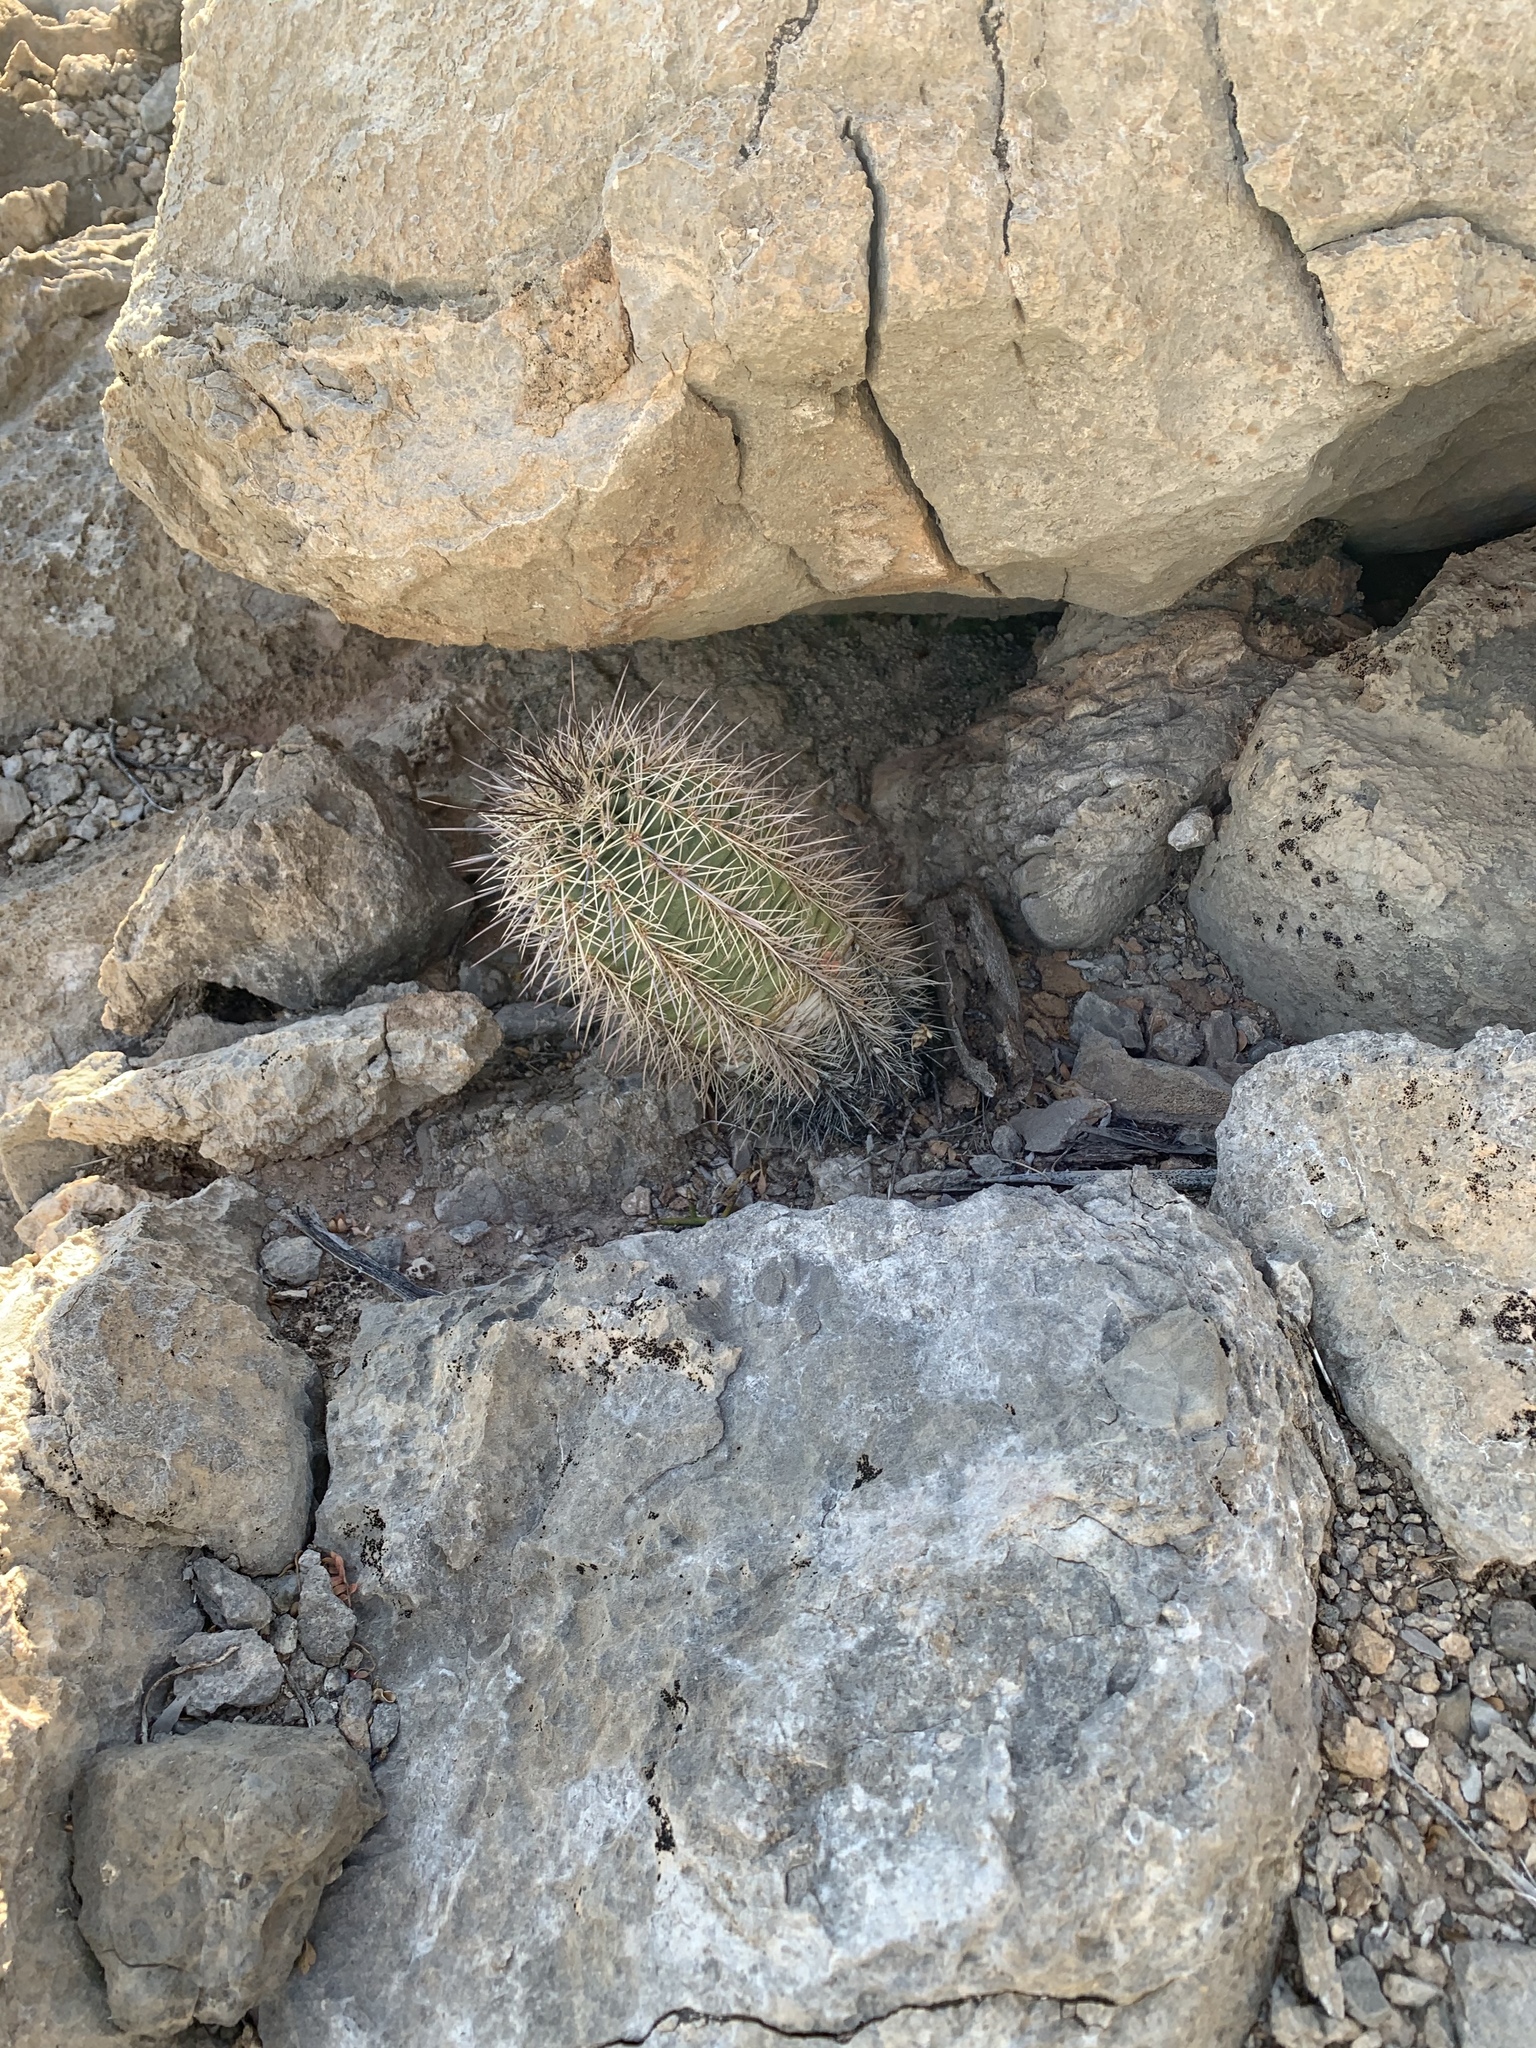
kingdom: Plantae
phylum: Tracheophyta
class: Magnoliopsida
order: Caryophyllales
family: Cactaceae
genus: Echinocereus
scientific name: Echinocereus coccineus
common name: Scarlet hedgehog cactus
